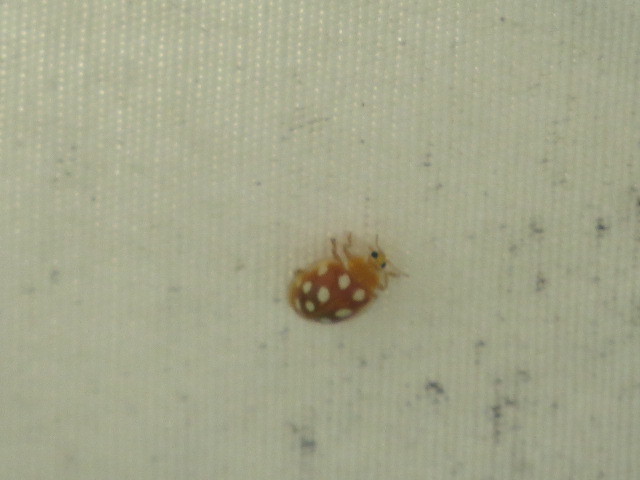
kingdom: Animalia
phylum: Arthropoda
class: Insecta
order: Coleoptera
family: Coccinellidae
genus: Halyzia
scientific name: Halyzia sedecimguttata
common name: Orange ladybird
